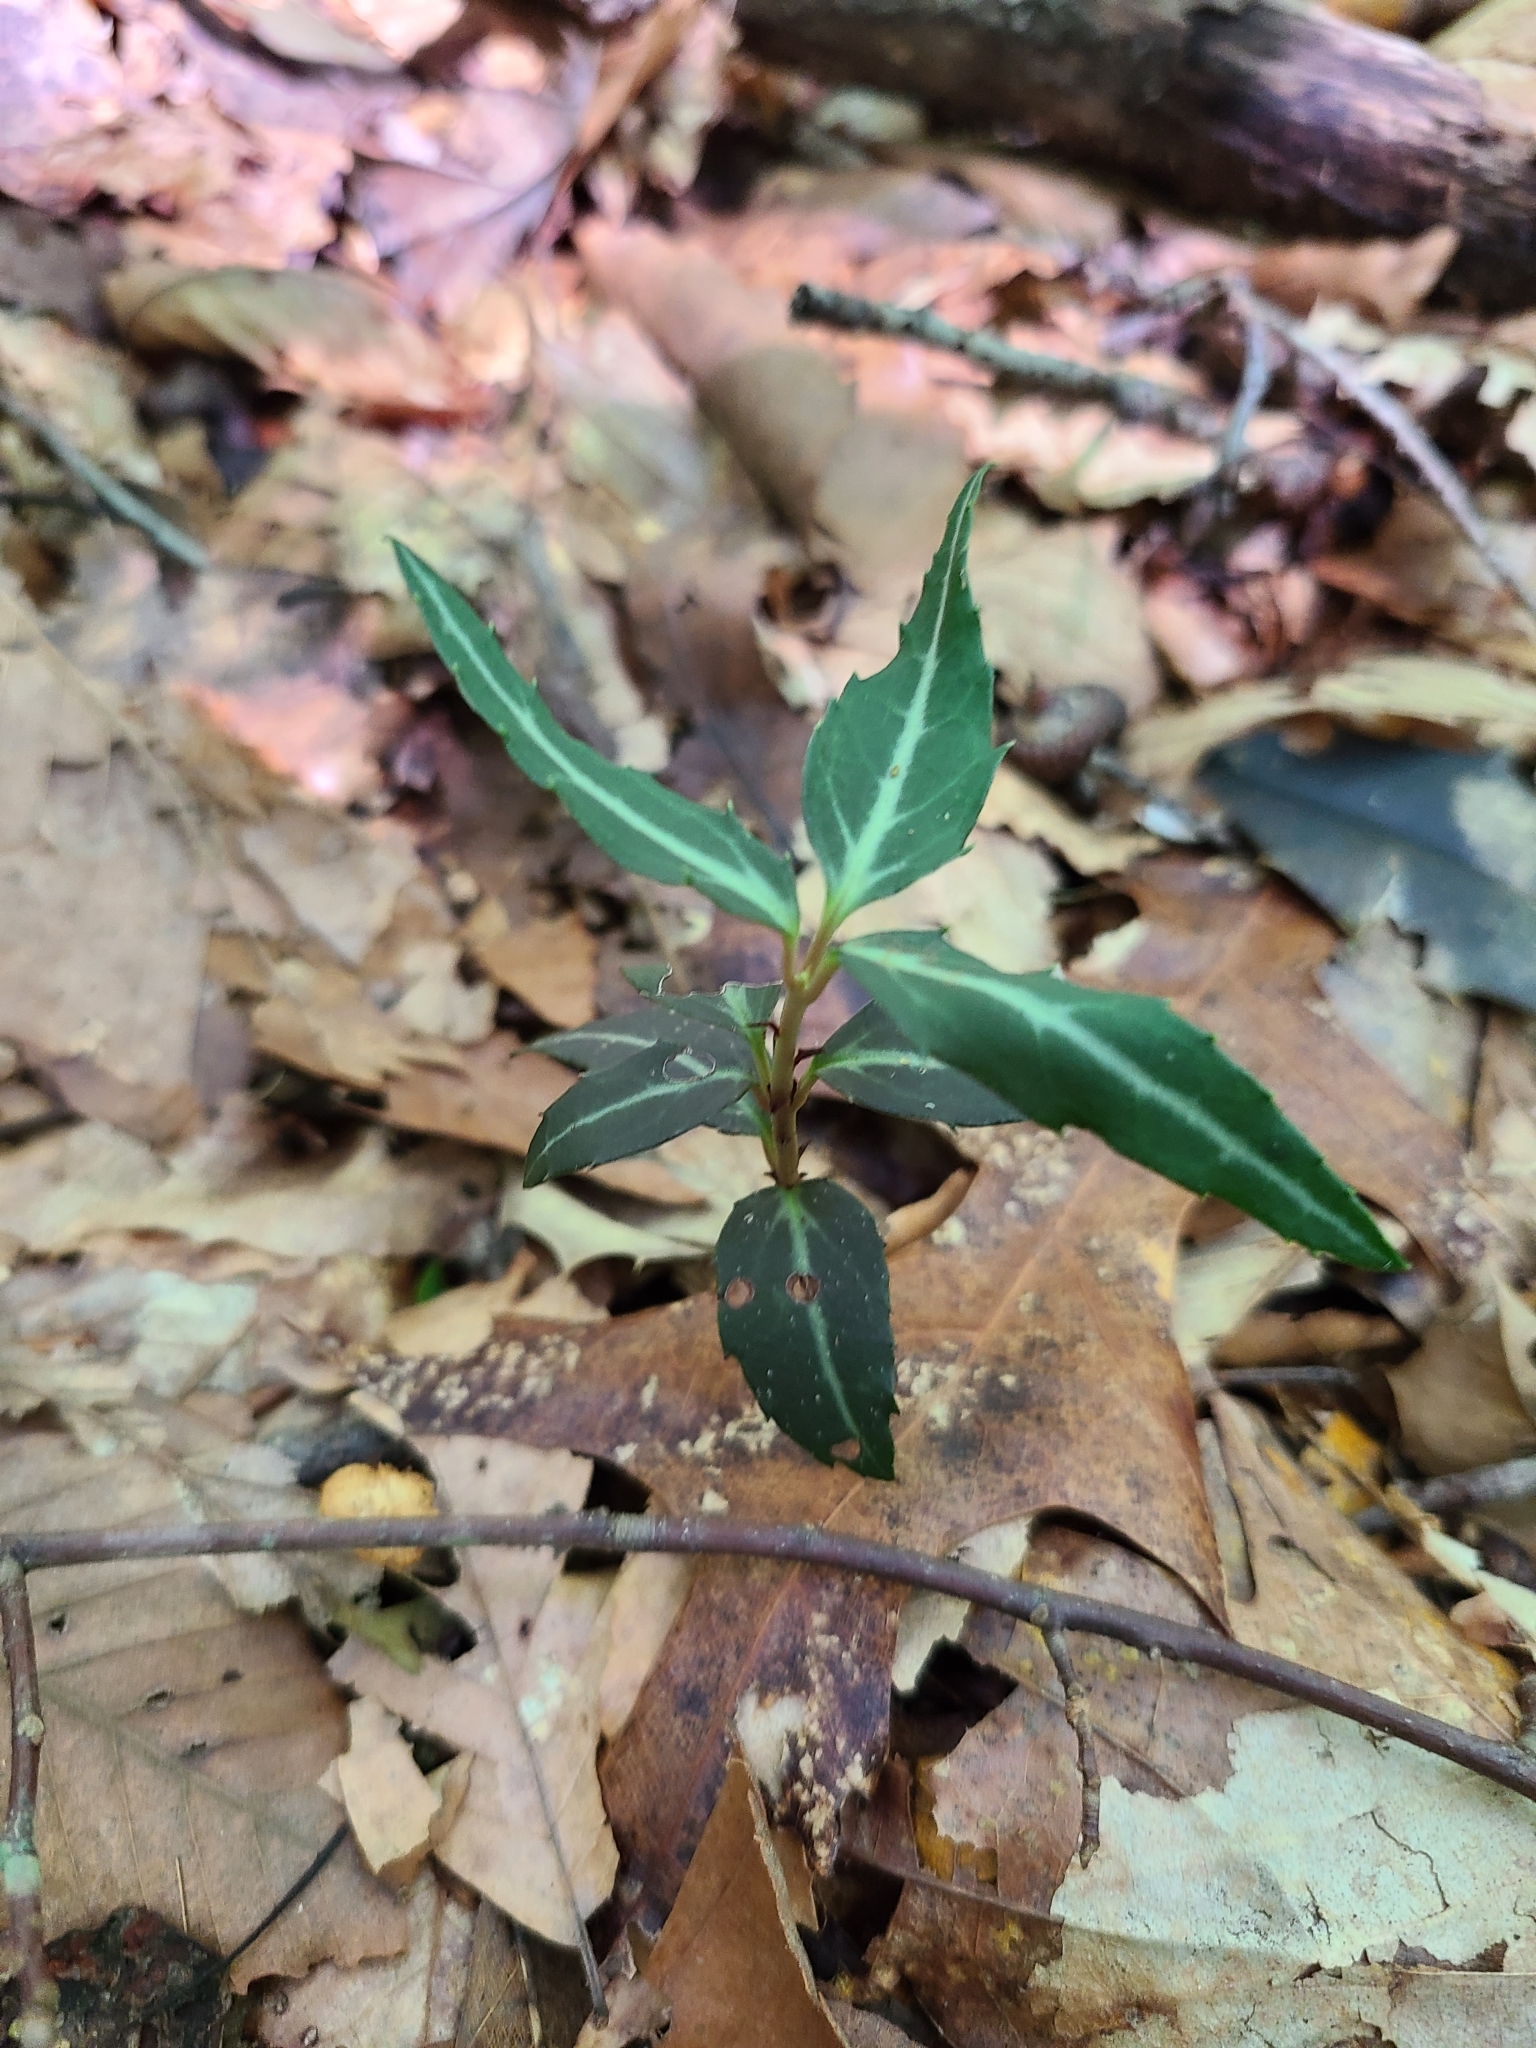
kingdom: Plantae
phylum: Tracheophyta
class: Magnoliopsida
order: Ericales
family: Ericaceae
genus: Chimaphila
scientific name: Chimaphila maculata
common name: Spotted pipsissewa
